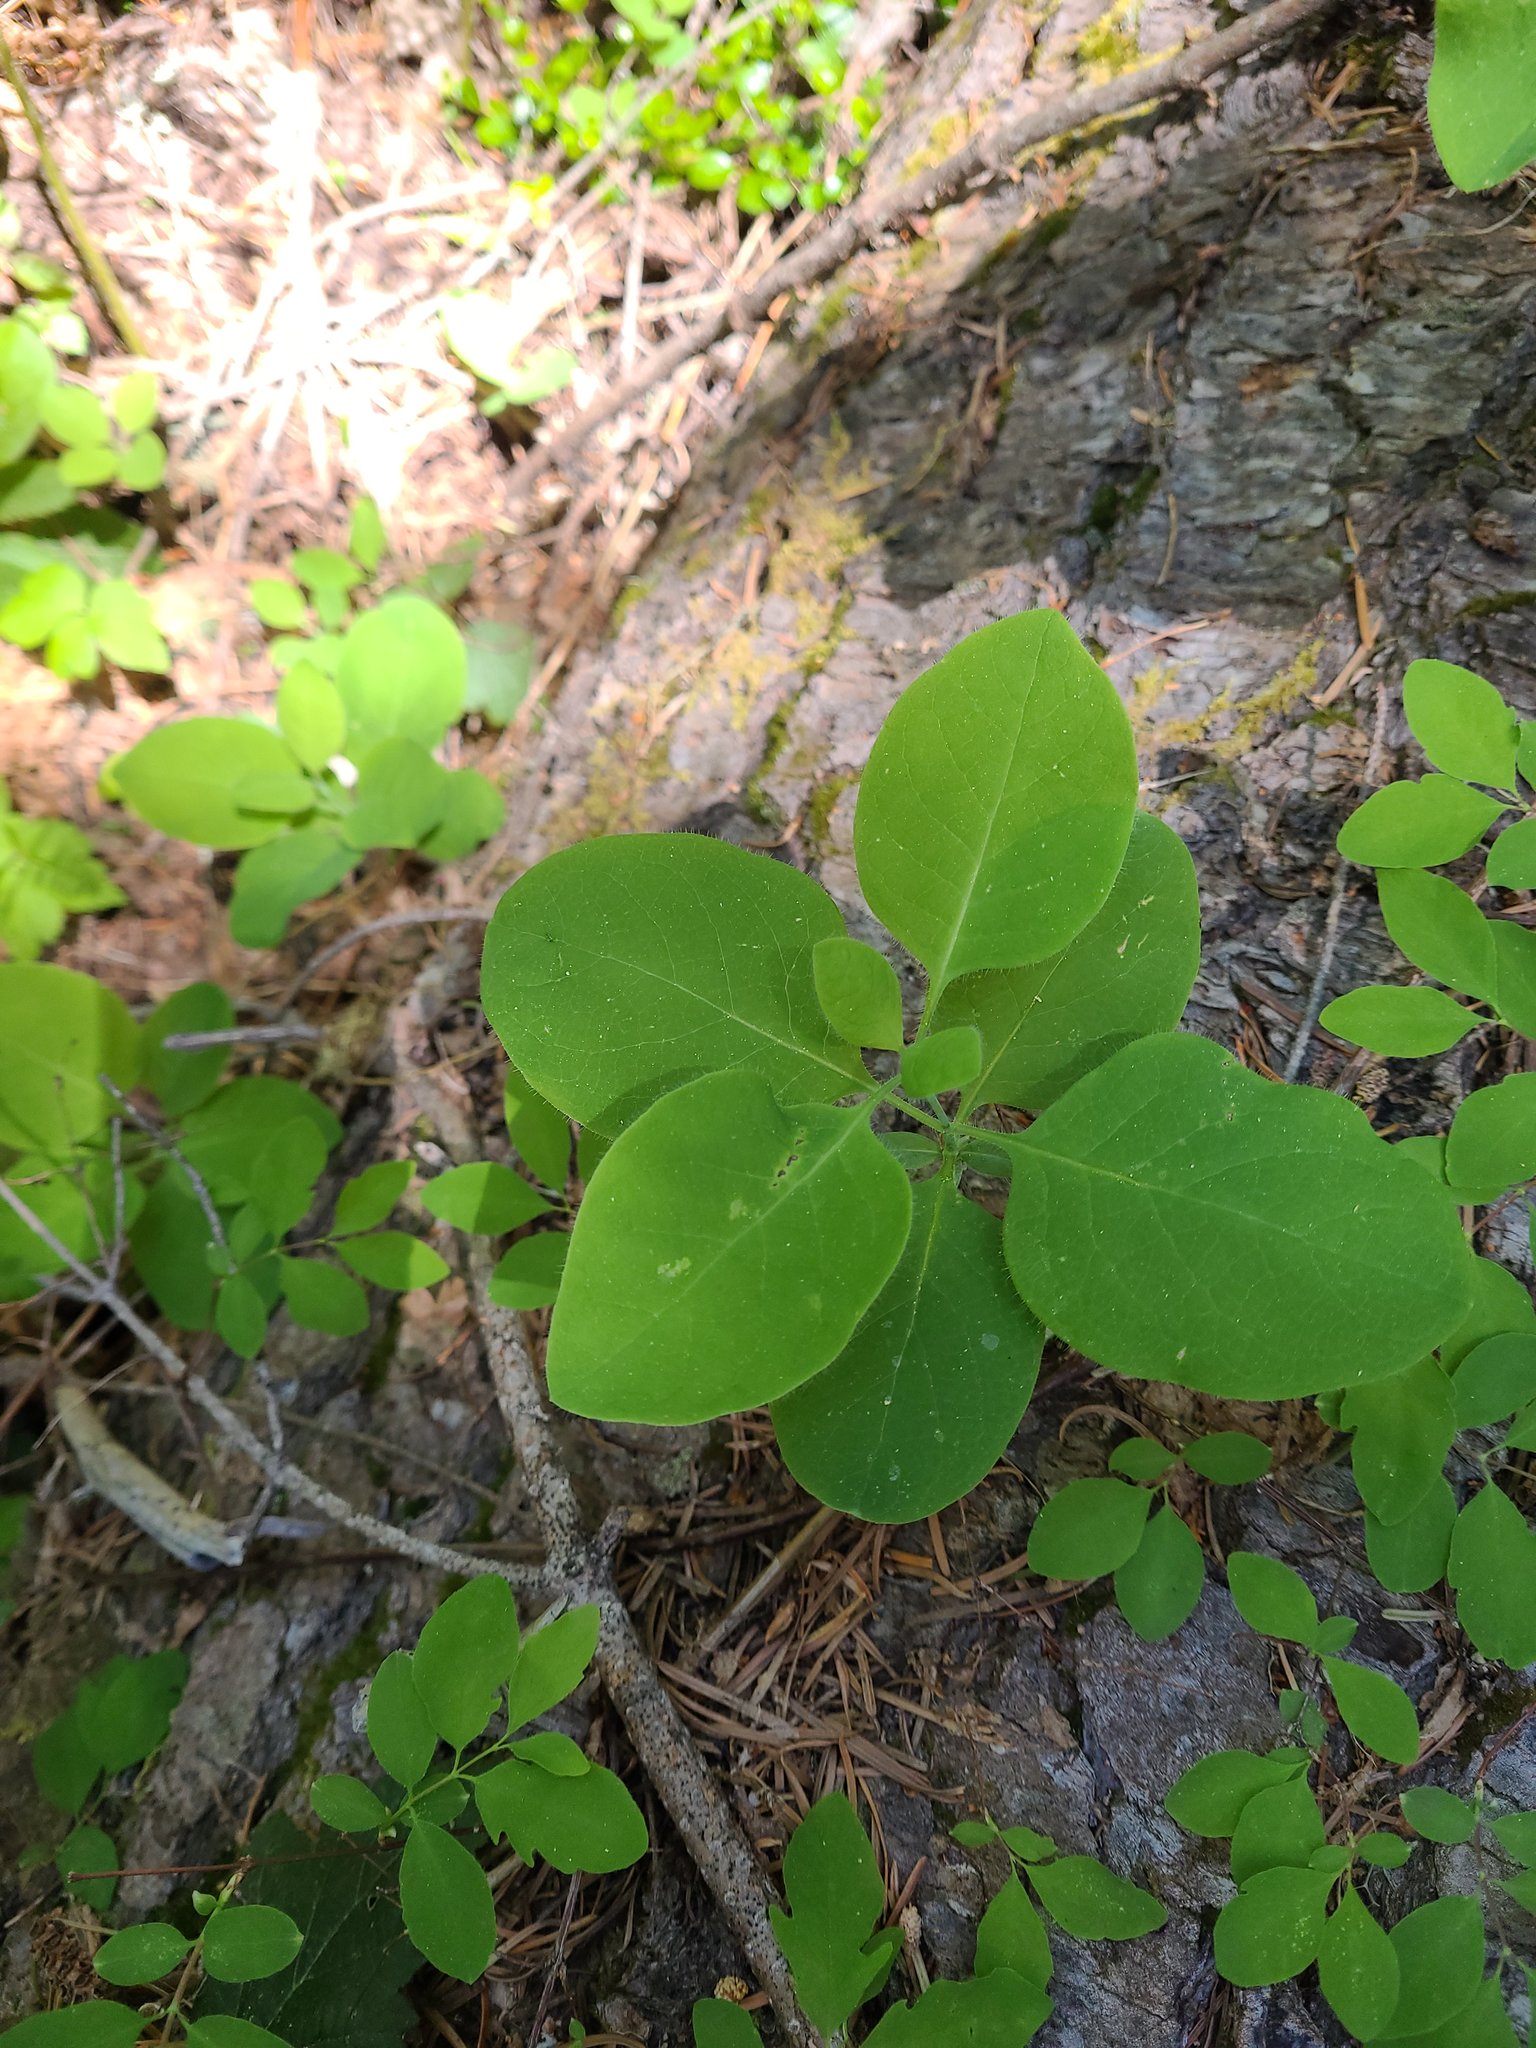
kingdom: Plantae
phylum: Tracheophyta
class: Magnoliopsida
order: Dipsacales
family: Caprifoliaceae
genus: Lonicera
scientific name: Lonicera ciliosa
